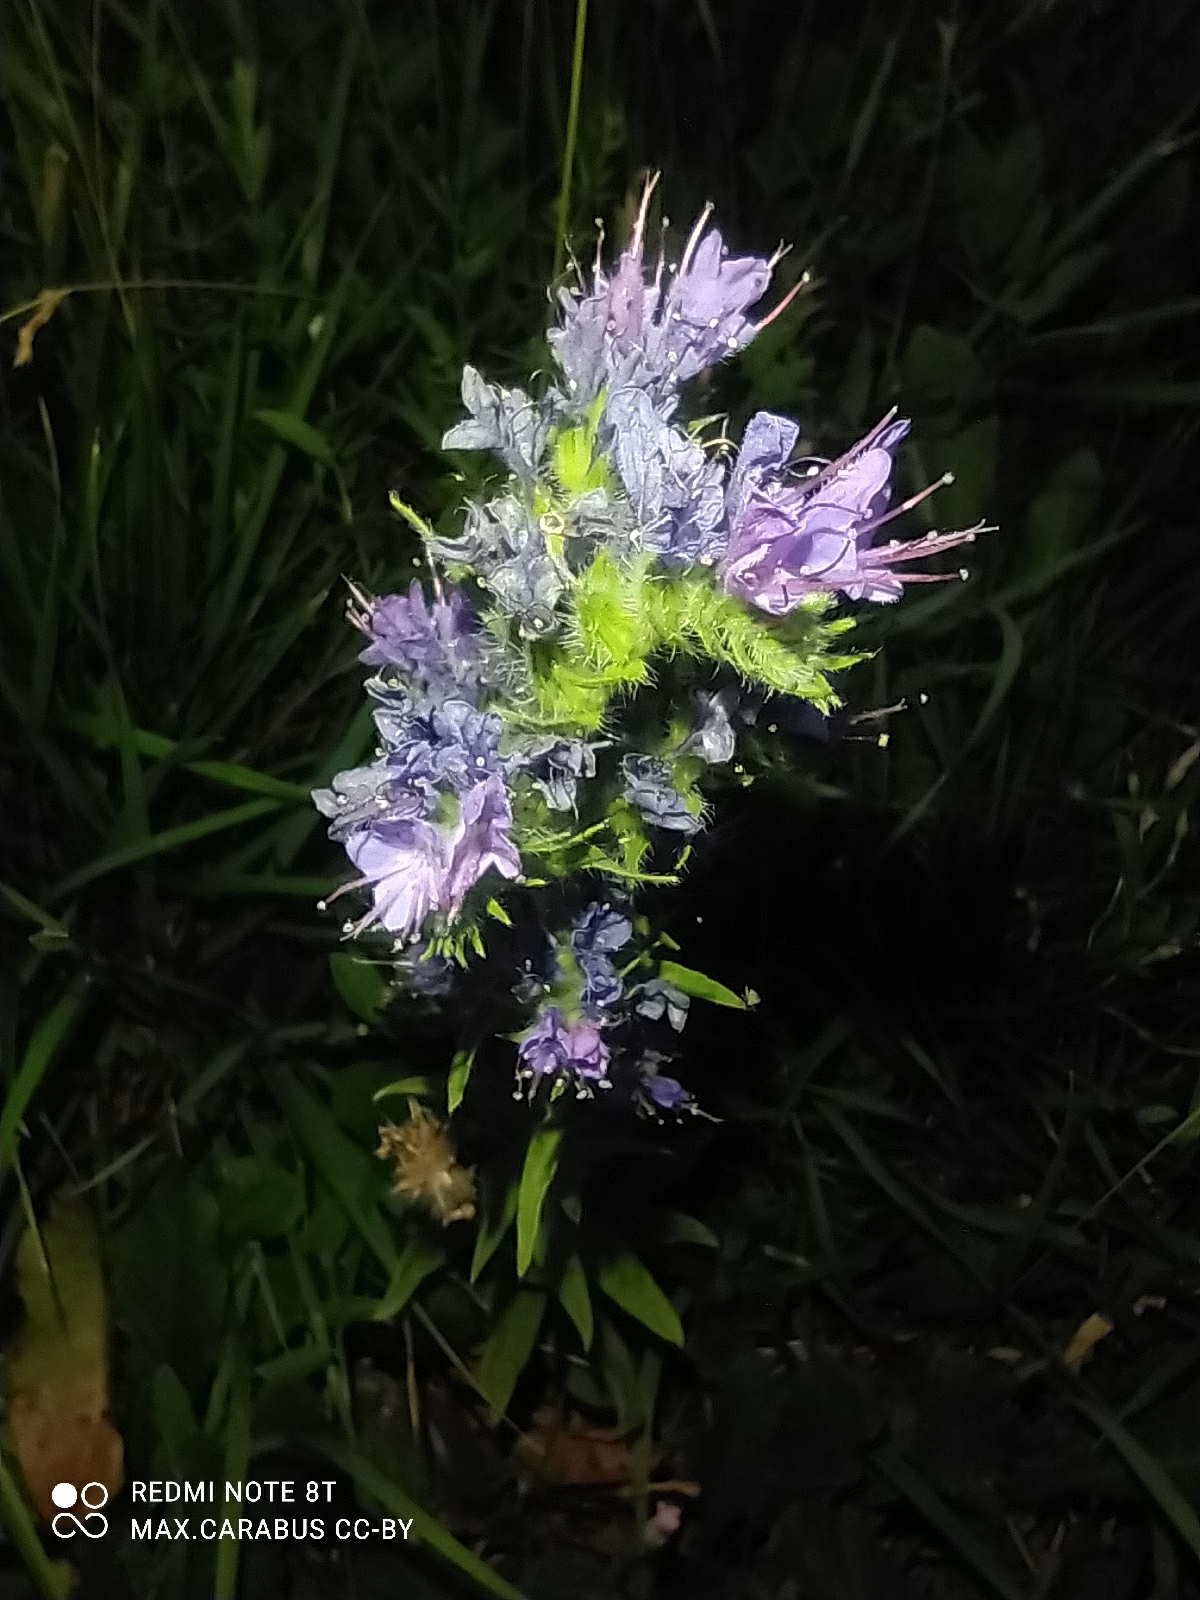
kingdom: Plantae
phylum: Tracheophyta
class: Magnoliopsida
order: Boraginales
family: Boraginaceae
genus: Echium
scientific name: Echium vulgare
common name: Common viper's bugloss
